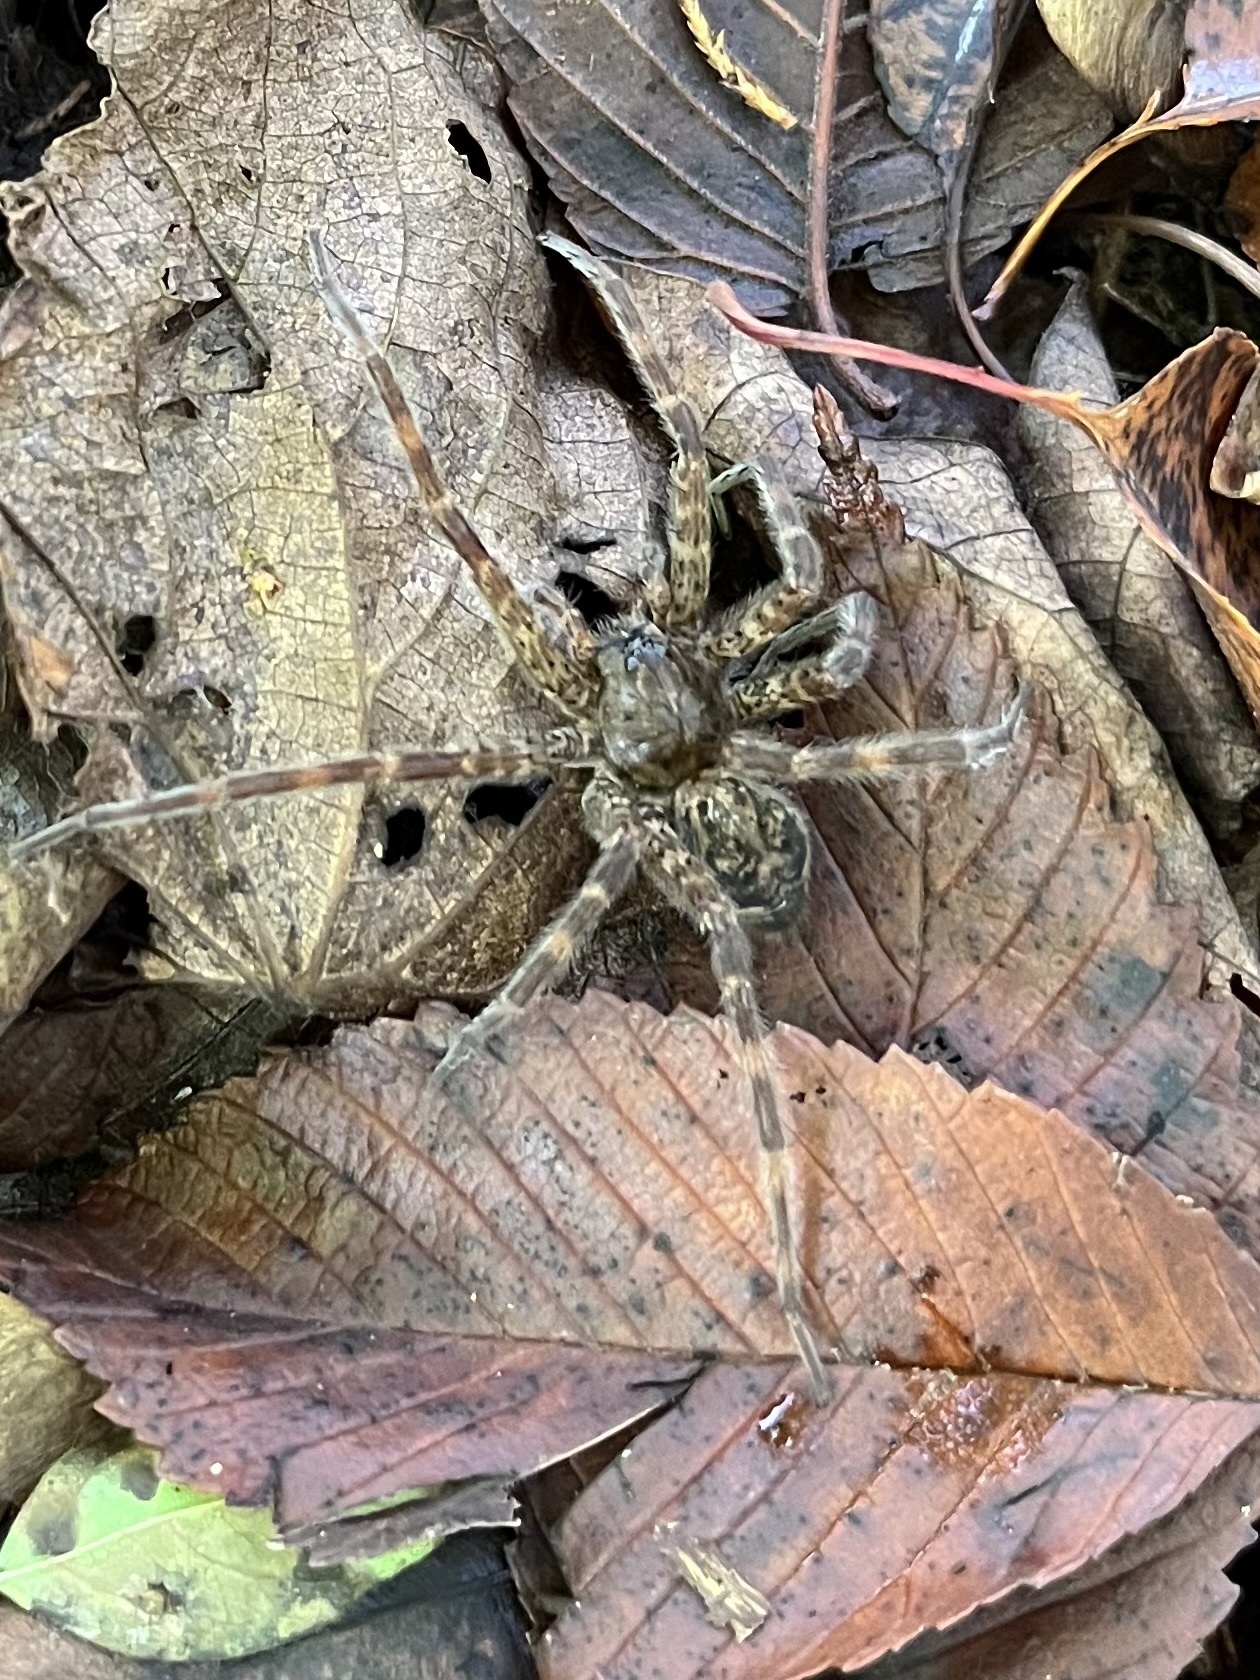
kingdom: Animalia
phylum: Arthropoda
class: Arachnida
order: Araneae
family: Pisauridae
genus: Dolomedes
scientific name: Dolomedes tenebrosus
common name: Dark fishing spider
